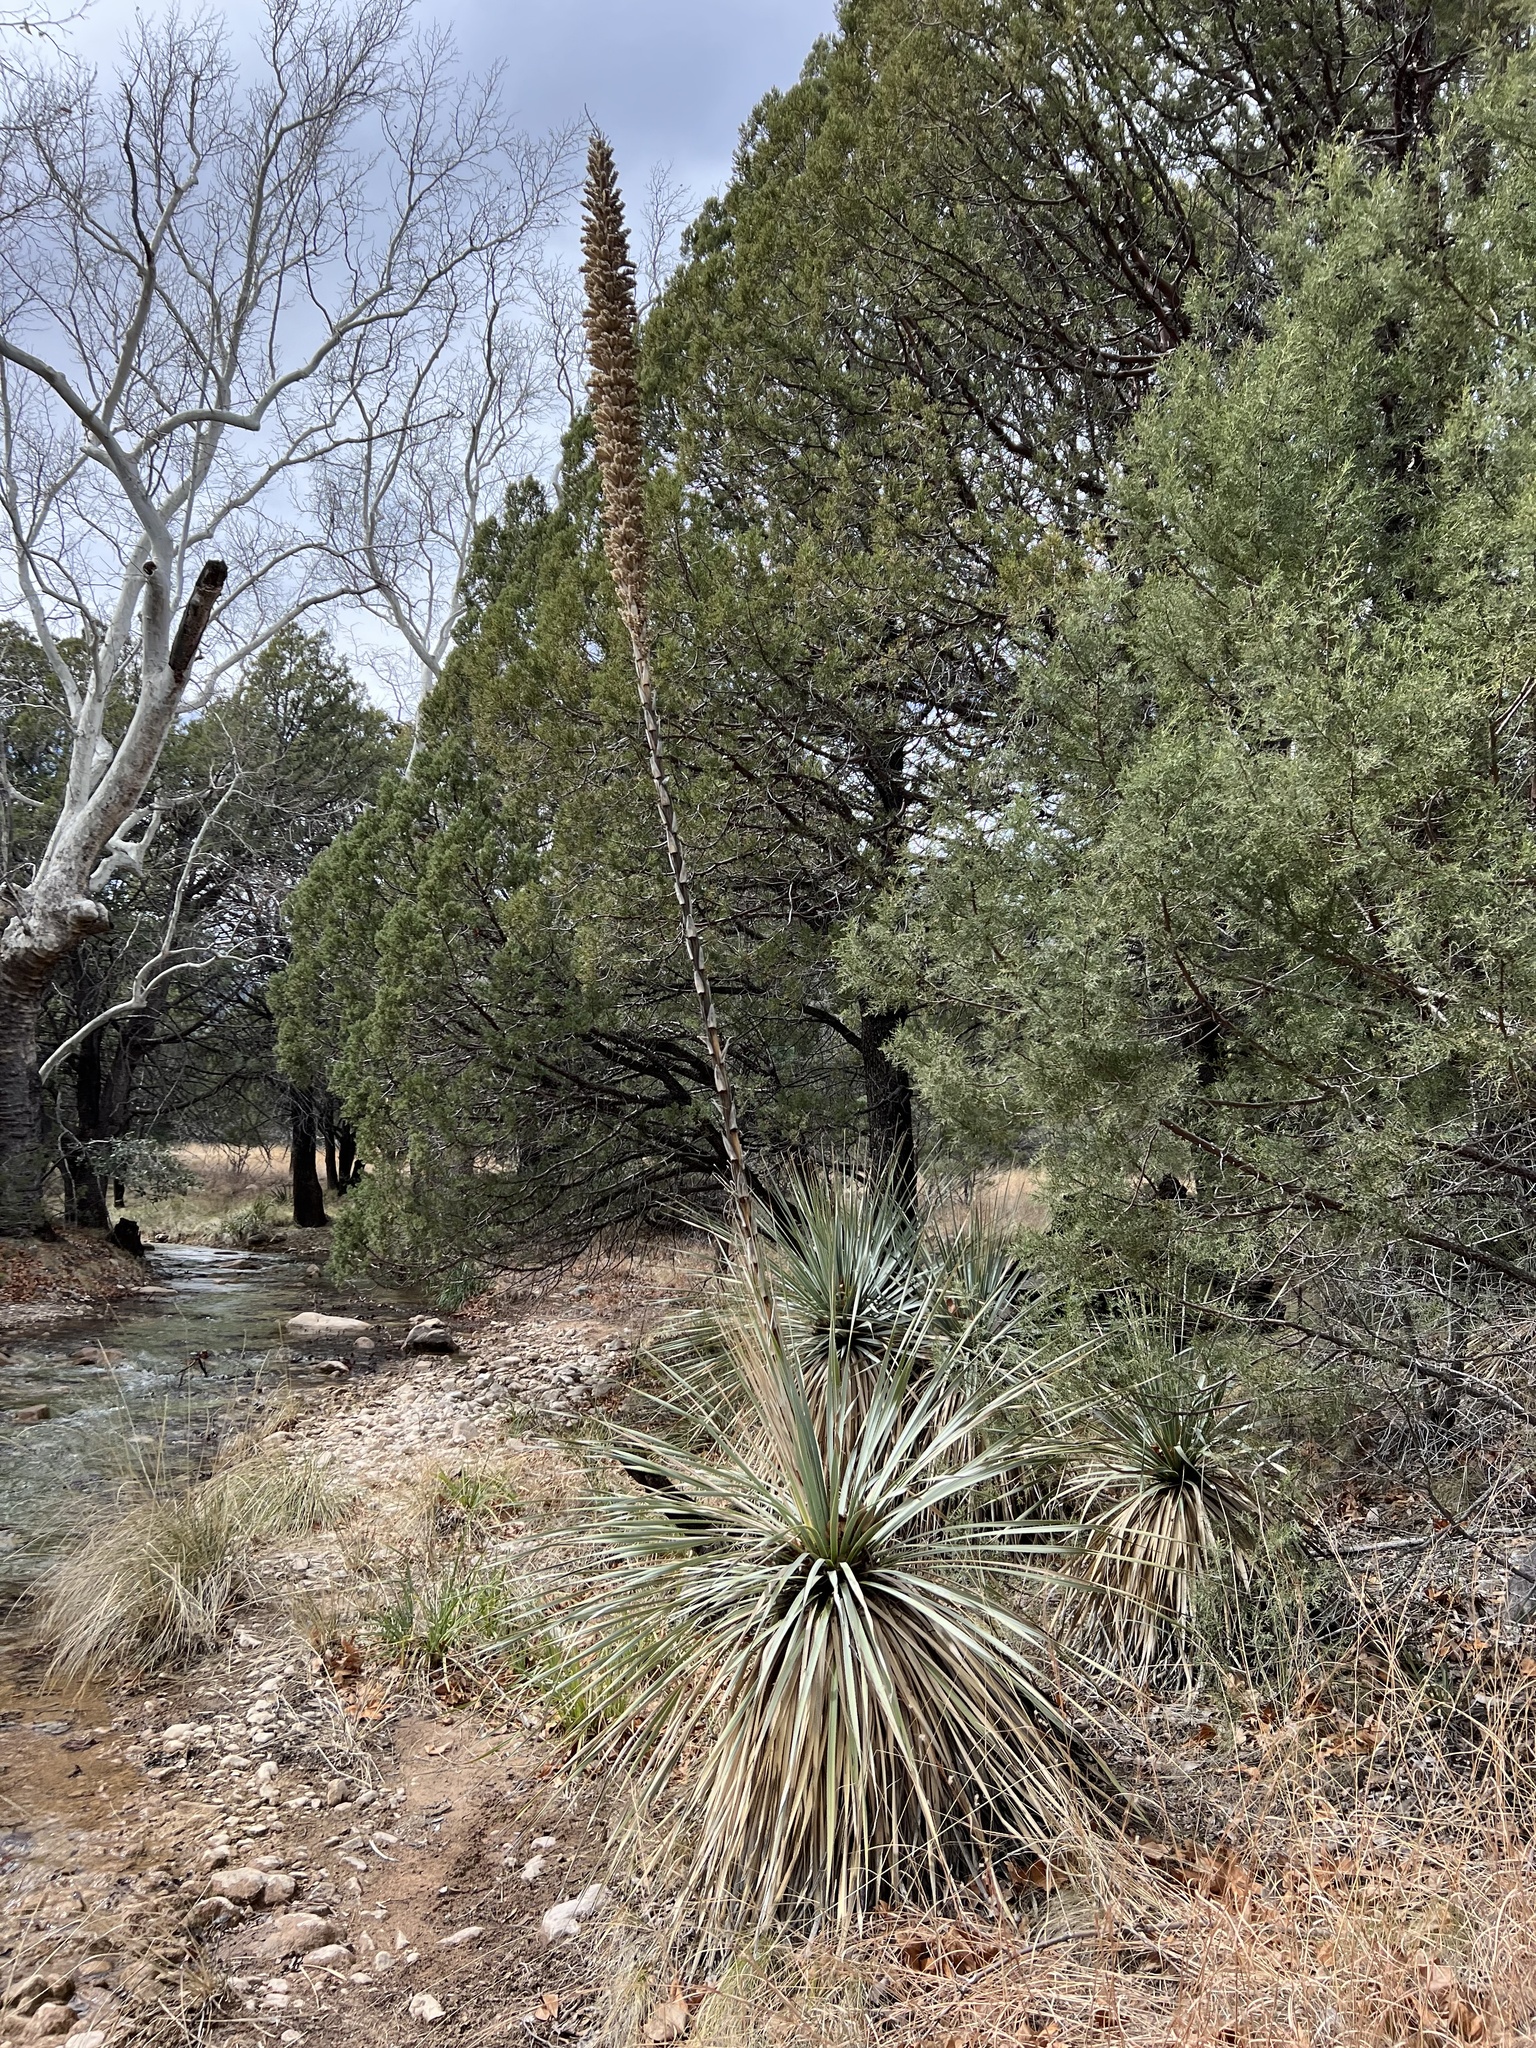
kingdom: Plantae
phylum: Tracheophyta
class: Liliopsida
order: Asparagales
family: Asparagaceae
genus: Dasylirion
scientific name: Dasylirion wheeleri
